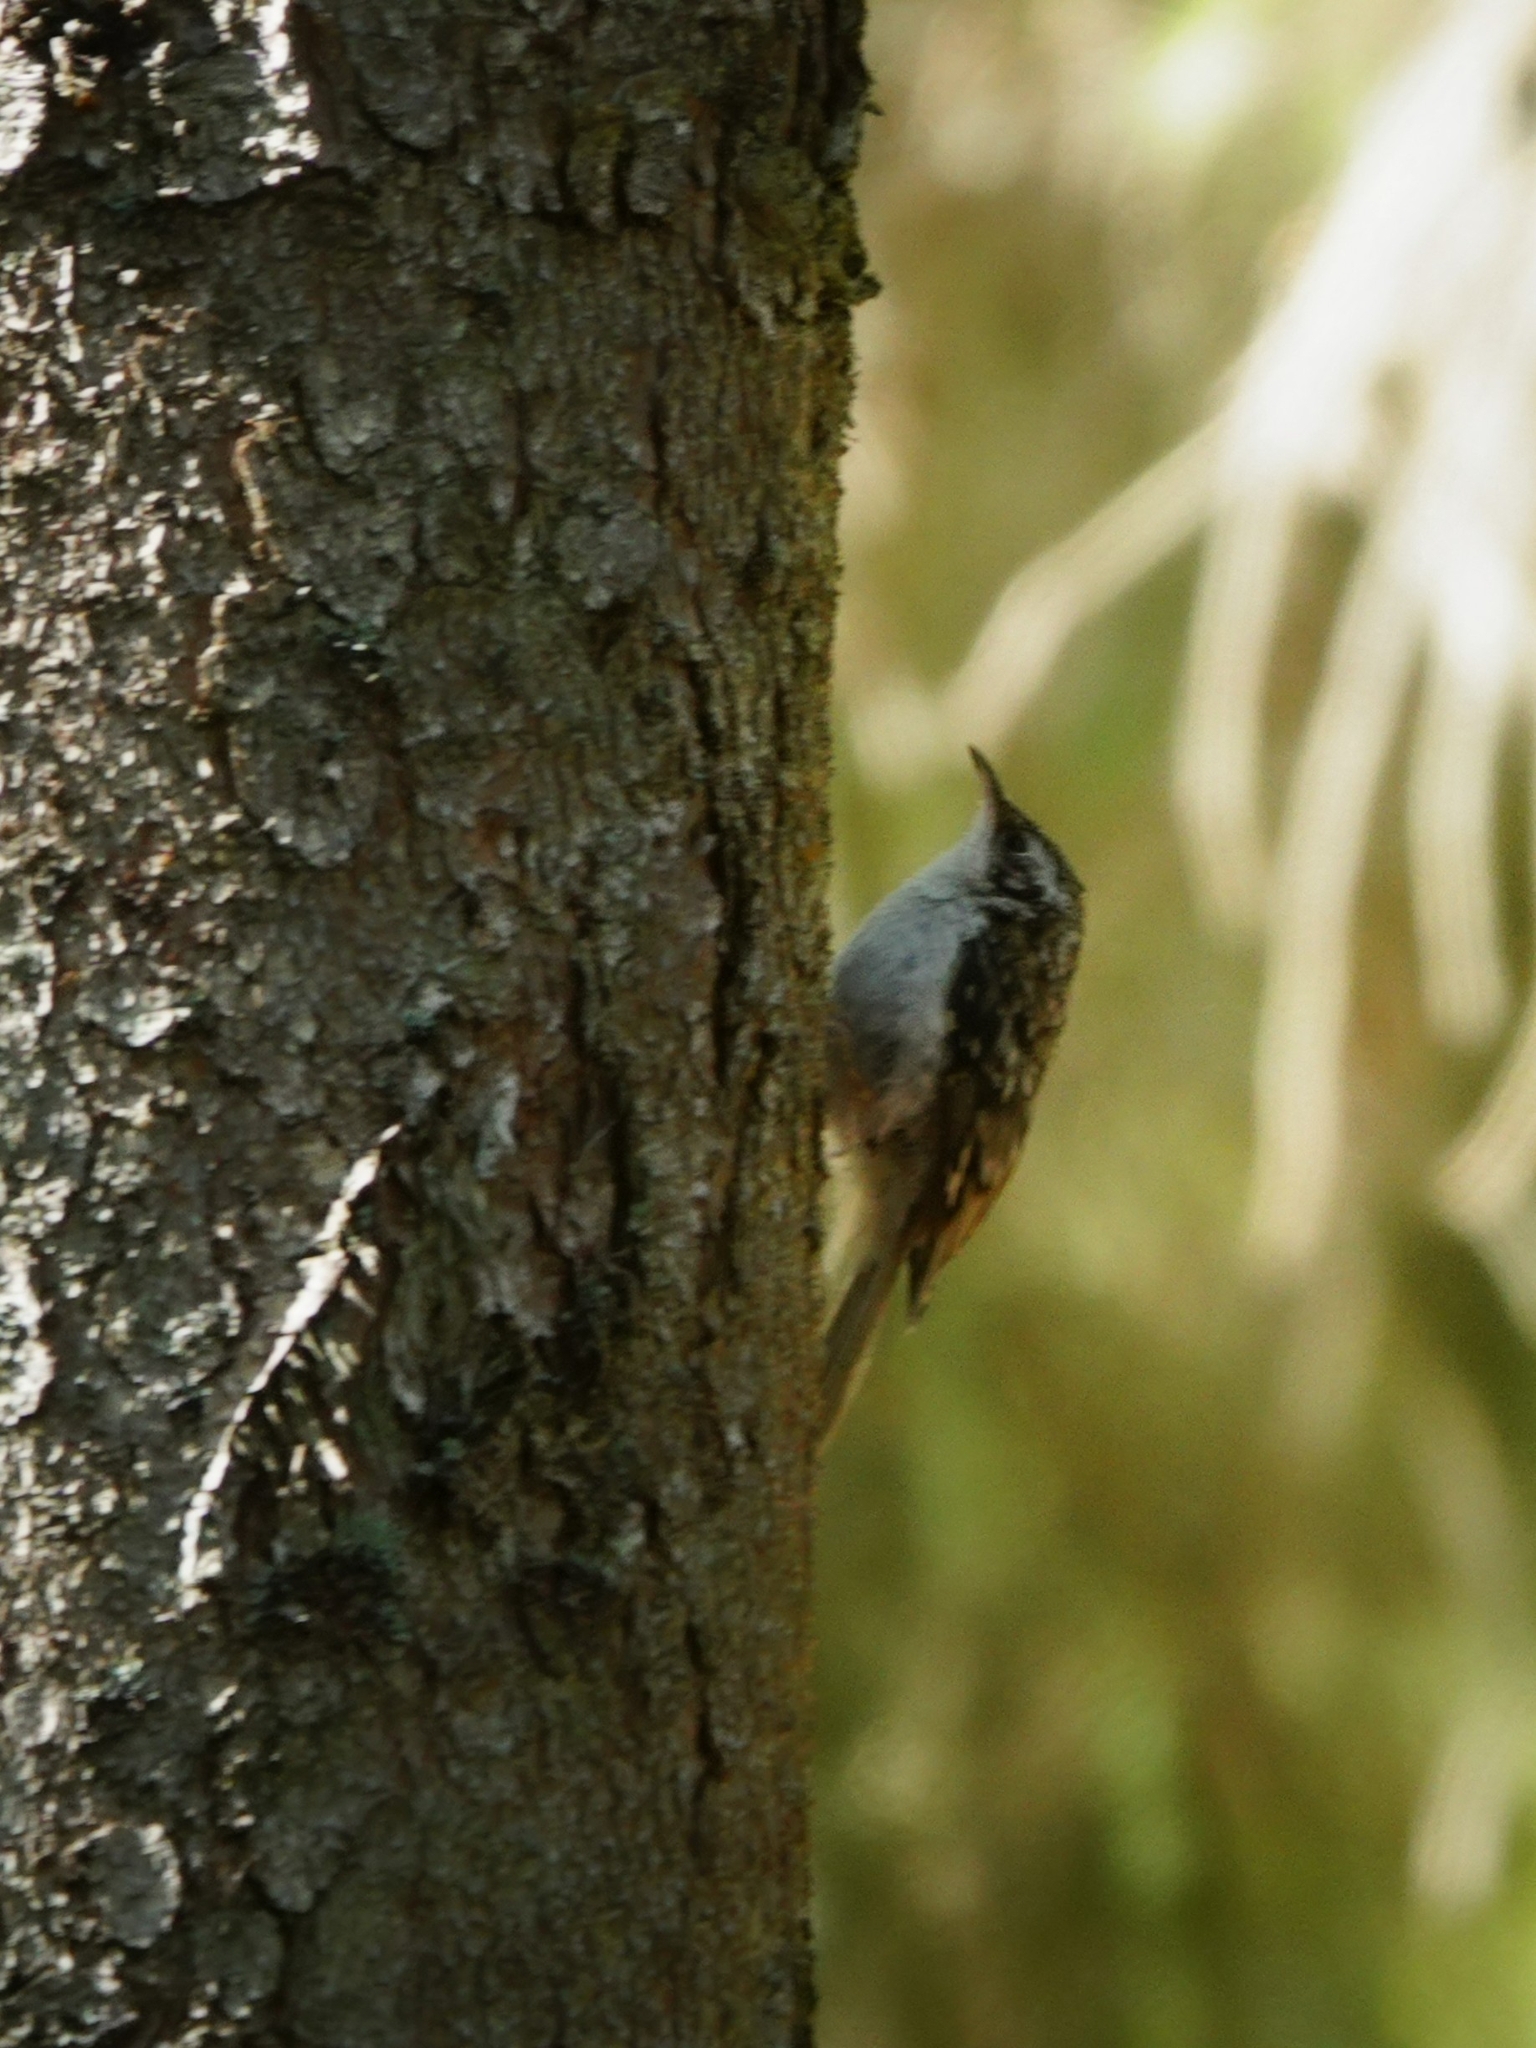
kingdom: Animalia
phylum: Chordata
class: Aves
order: Passeriformes
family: Certhiidae
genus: Certhia
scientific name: Certhia familiaris
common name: Eurasian treecreeper
